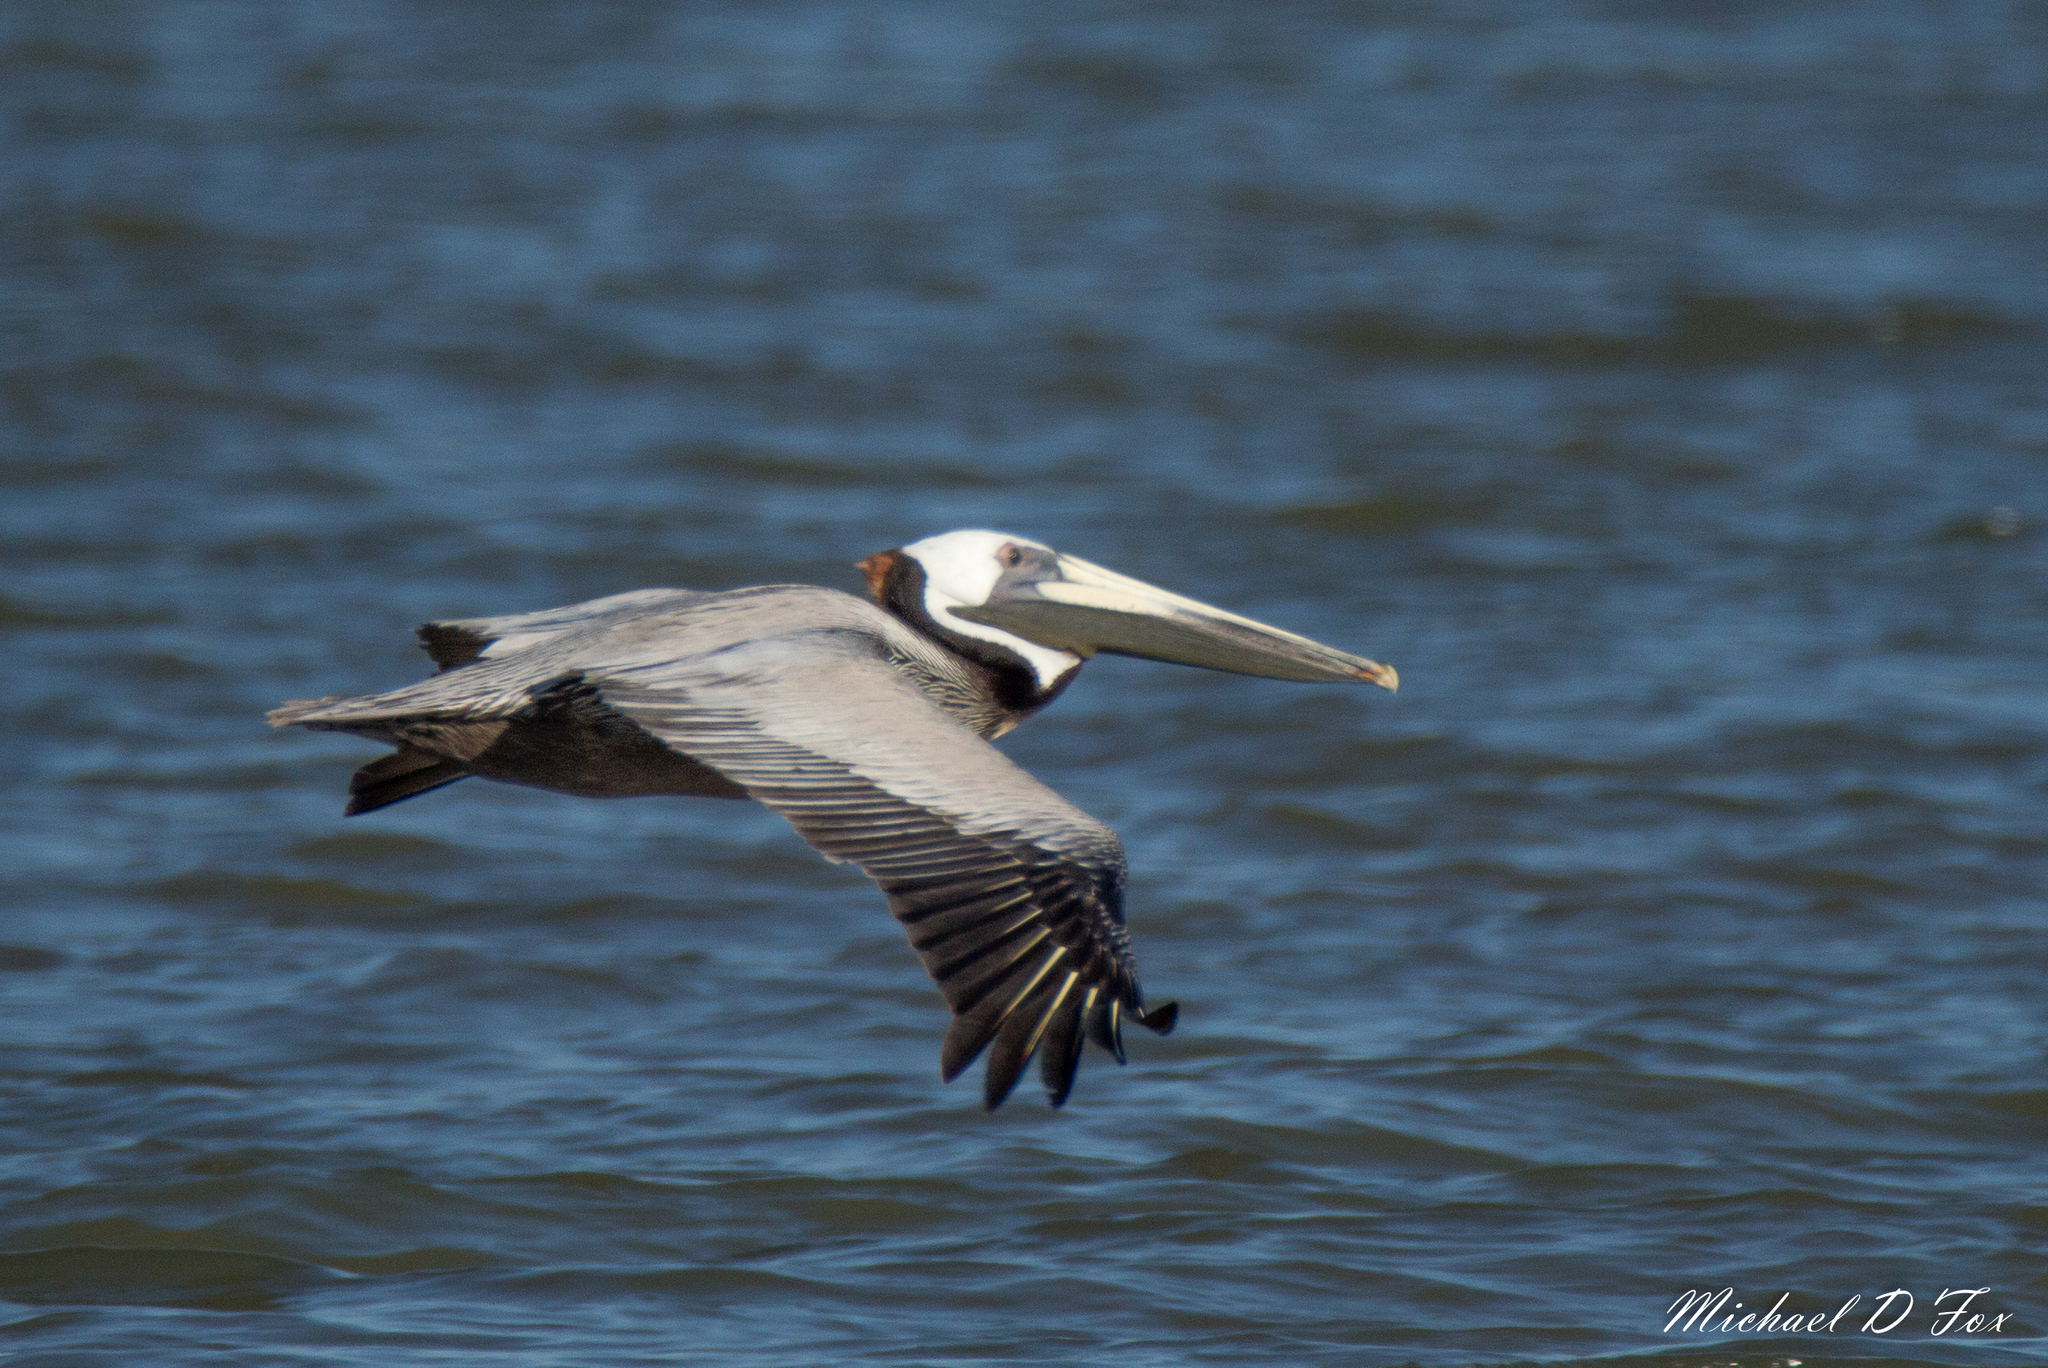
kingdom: Animalia
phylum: Chordata
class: Aves
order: Pelecaniformes
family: Pelecanidae
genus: Pelecanus
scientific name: Pelecanus occidentalis
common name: Brown pelican
